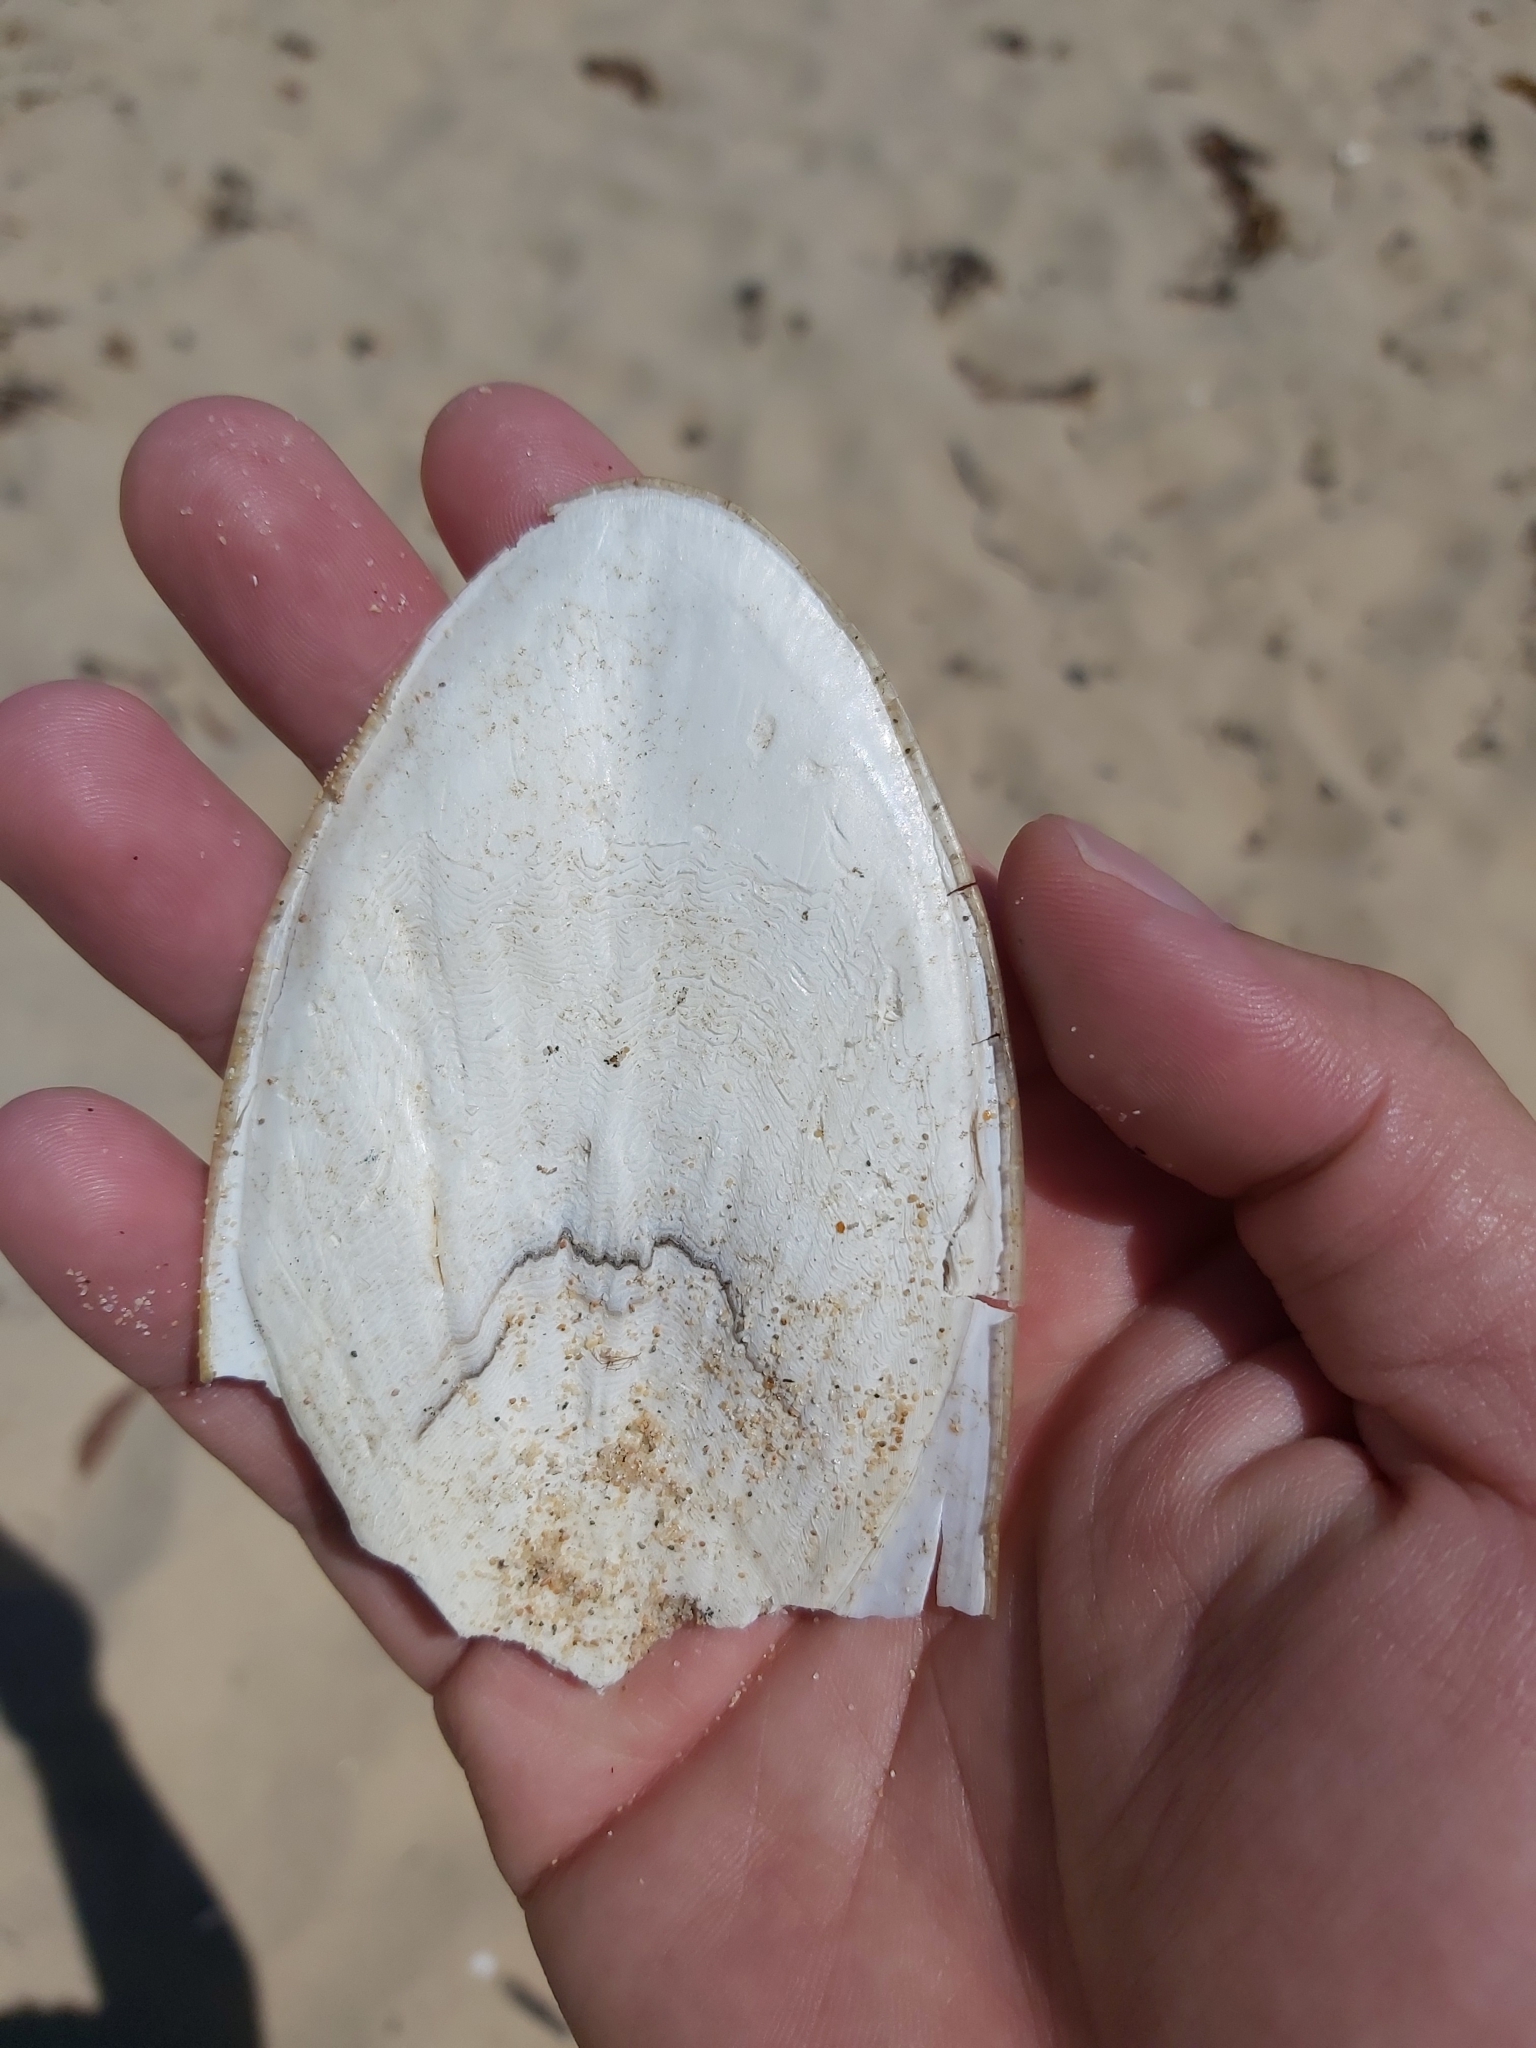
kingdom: Animalia
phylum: Mollusca
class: Cephalopoda
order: Sepiida
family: Sepiidae
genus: Ascarosepion
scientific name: Ascarosepion mestus
